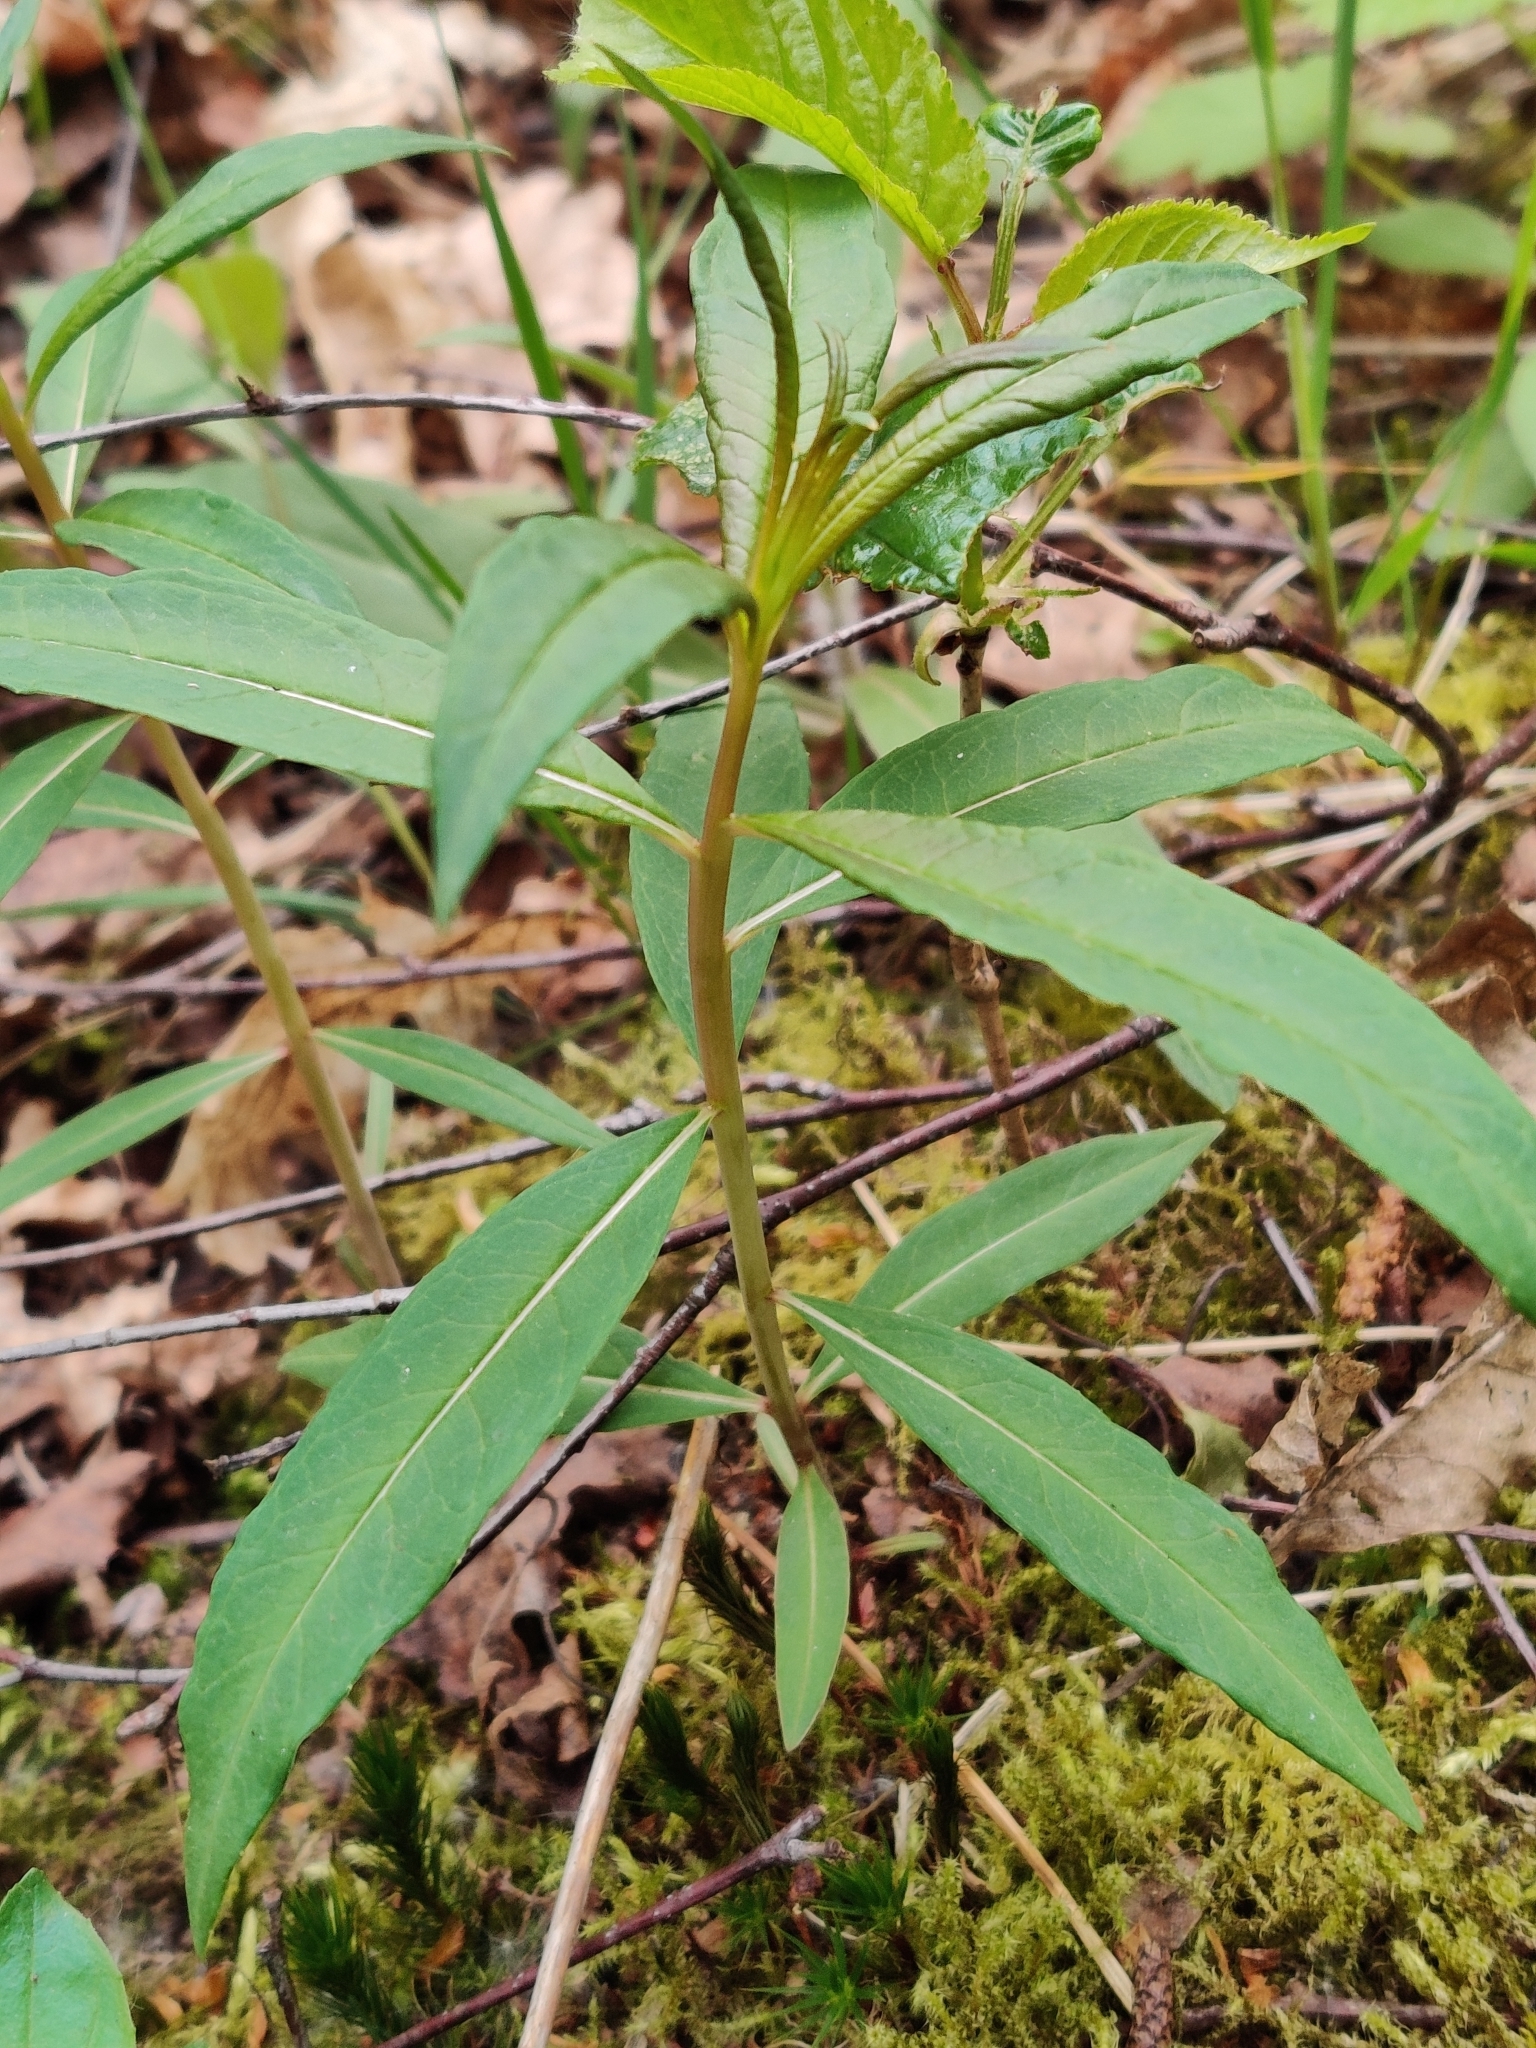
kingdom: Plantae
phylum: Tracheophyta
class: Magnoliopsida
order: Myrtales
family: Onagraceae
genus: Chamaenerion
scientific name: Chamaenerion angustifolium
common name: Fireweed
